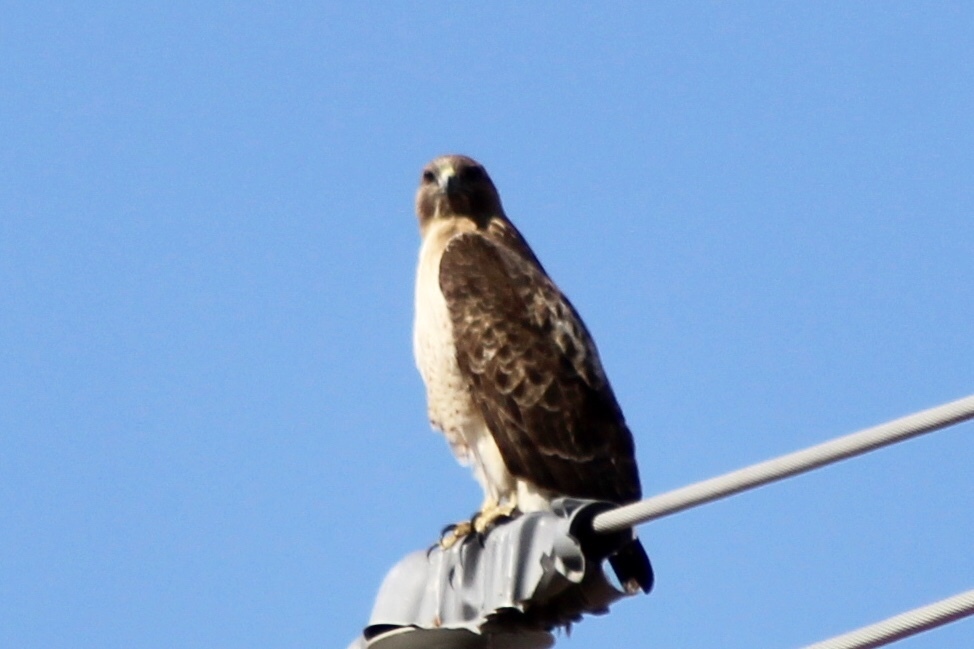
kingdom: Animalia
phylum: Chordata
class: Aves
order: Accipitriformes
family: Accipitridae
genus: Buteo
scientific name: Buteo jamaicensis
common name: Red-tailed hawk
